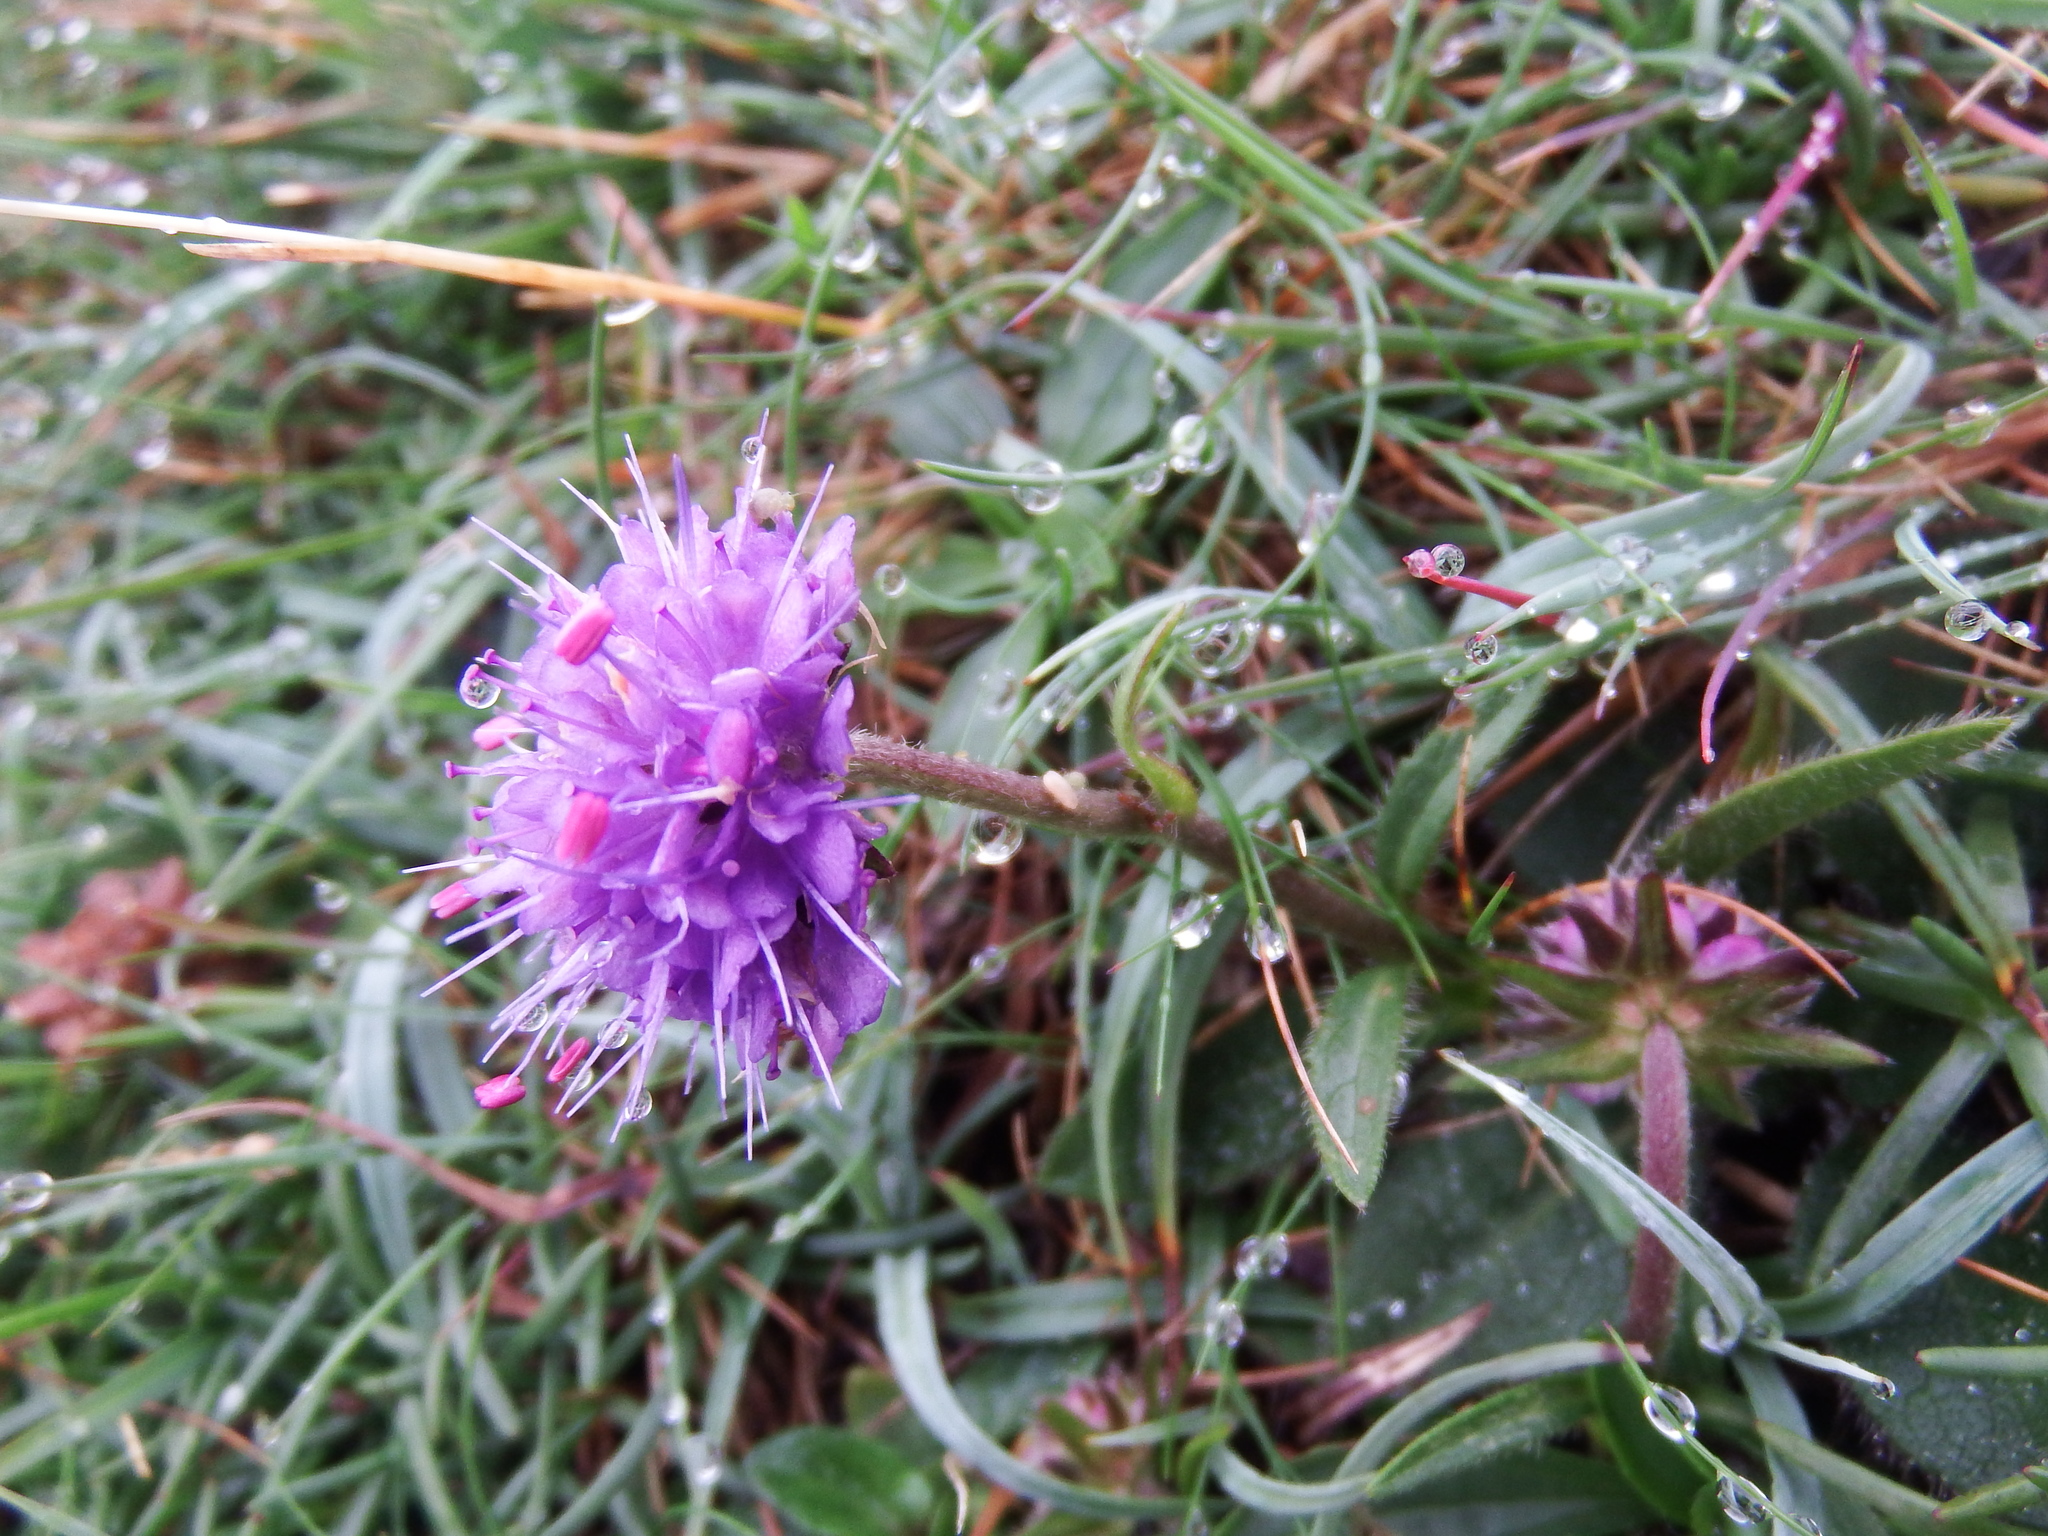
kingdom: Plantae
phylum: Tracheophyta
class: Magnoliopsida
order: Dipsacales
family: Caprifoliaceae
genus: Succisa
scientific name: Succisa pratensis
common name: Devil's-bit
